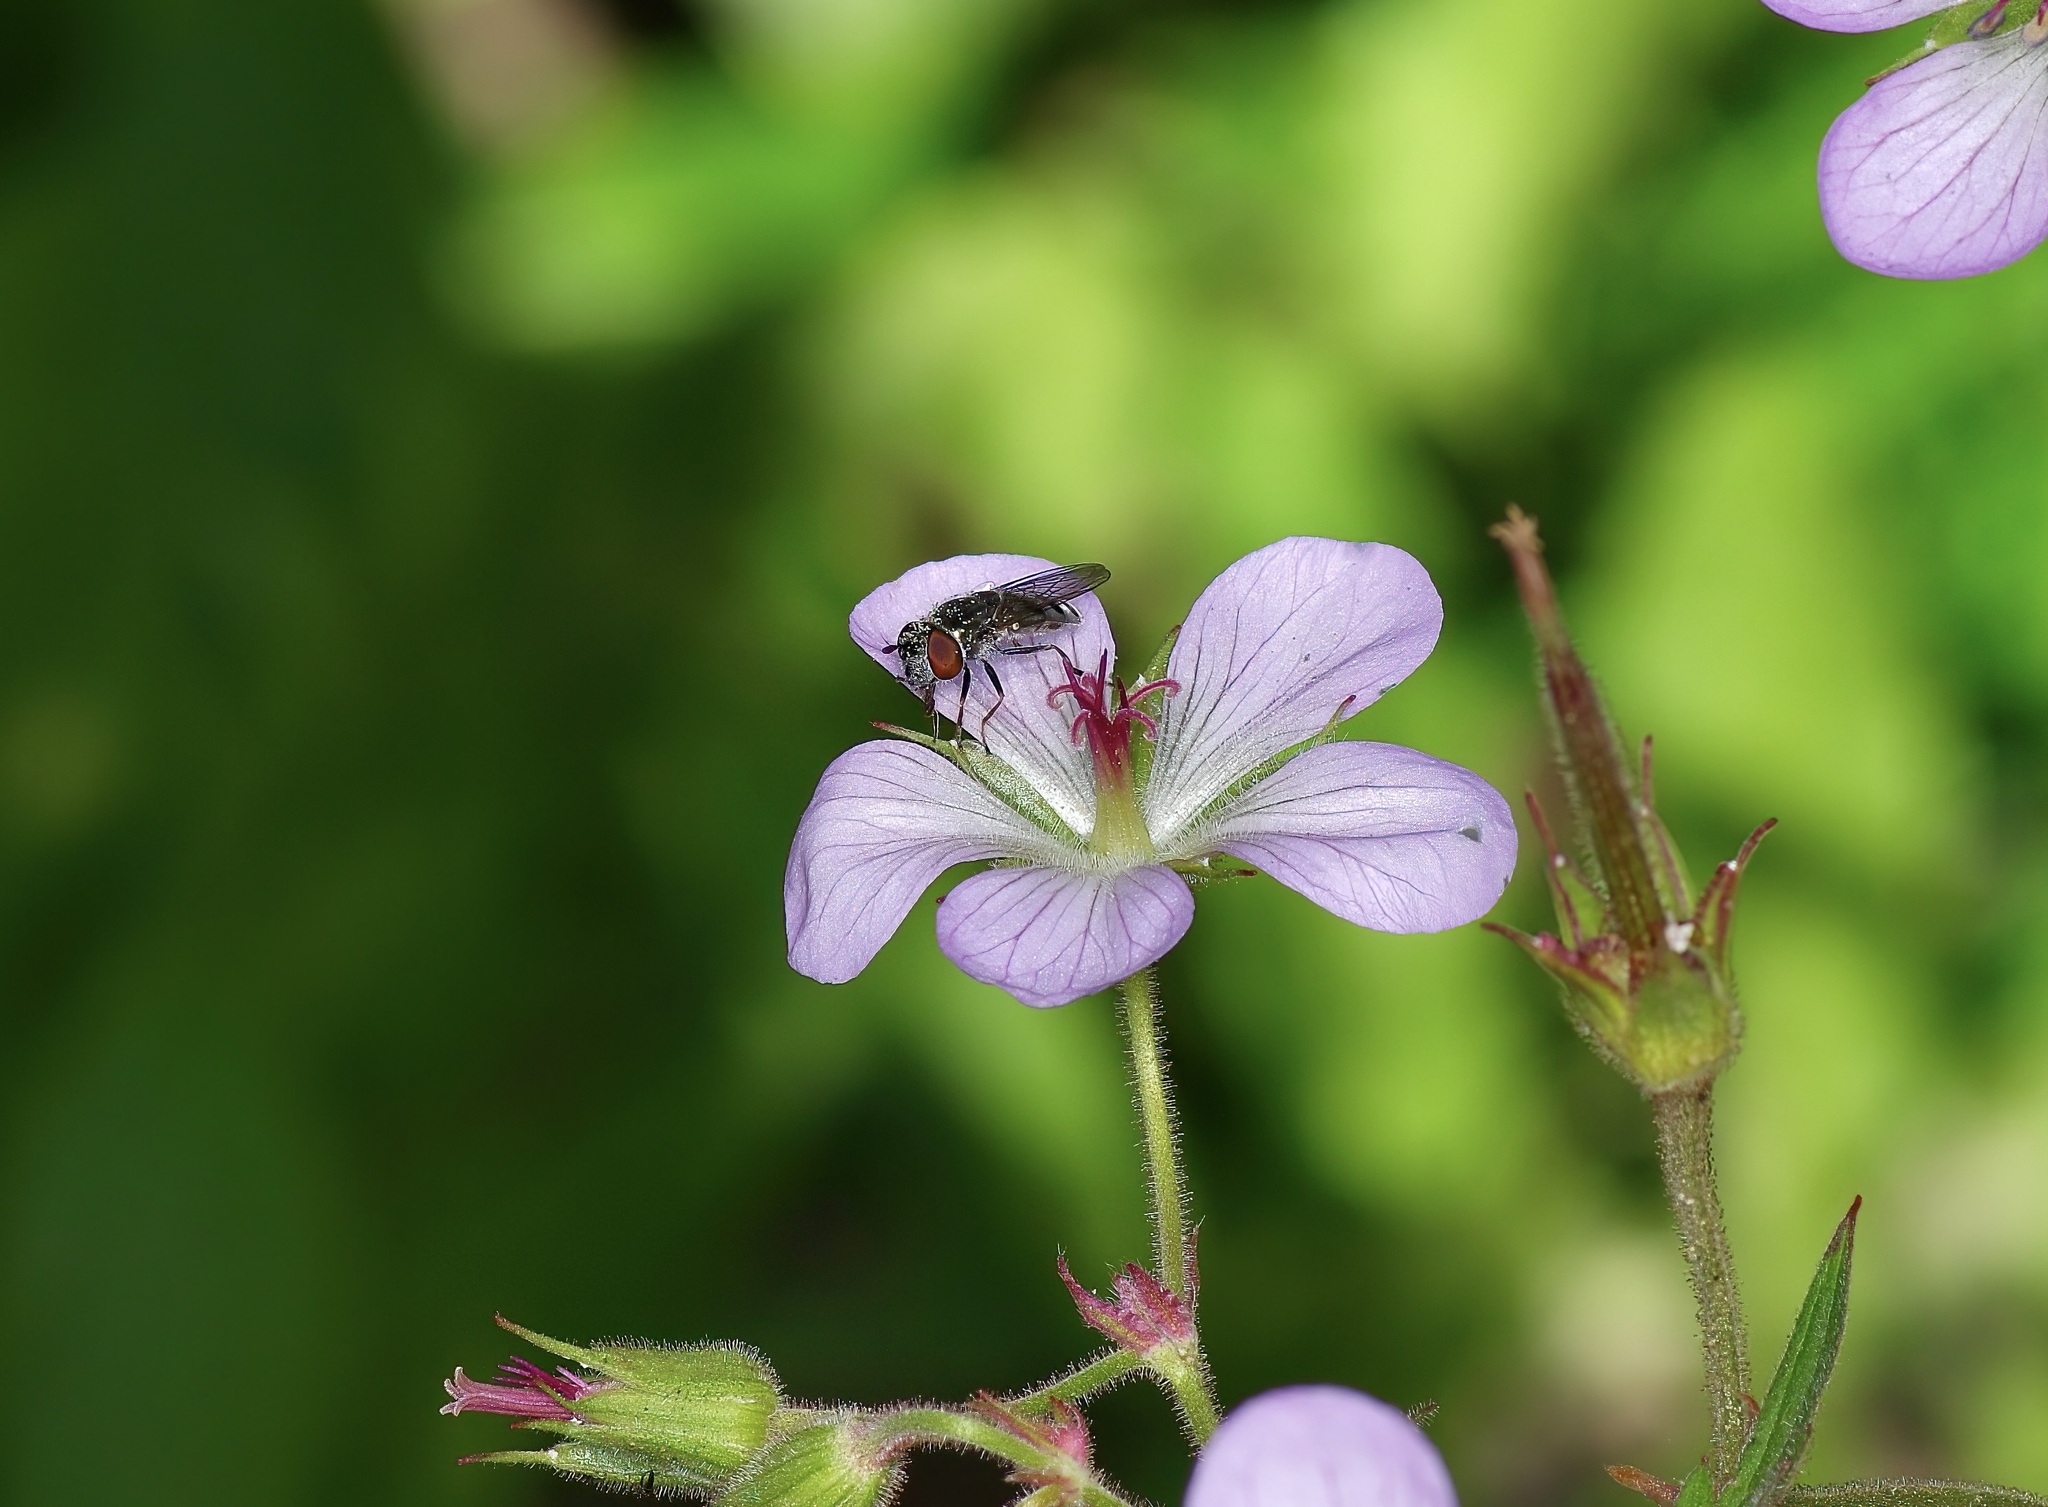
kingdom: Animalia
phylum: Arthropoda
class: Insecta
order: Diptera
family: Syrphidae
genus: Platycheirus
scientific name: Platycheirus
